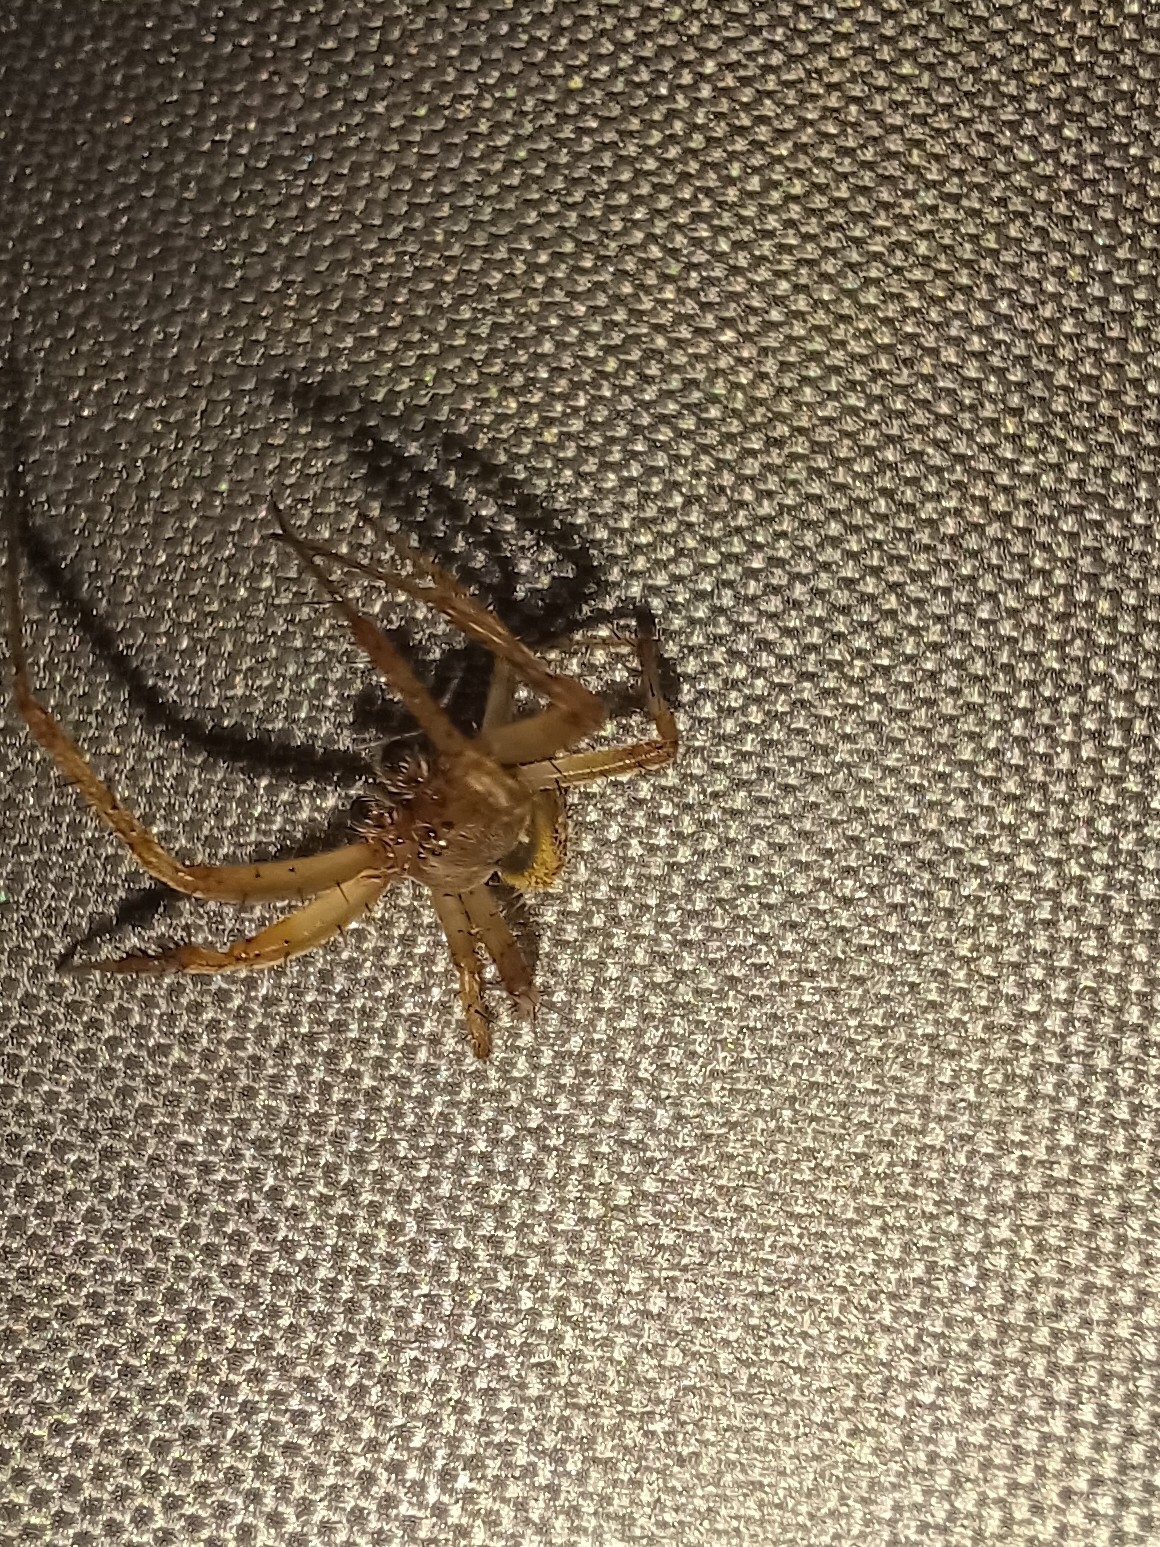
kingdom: Animalia
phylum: Arthropoda
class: Arachnida
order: Araneae
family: Araneidae
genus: Neoscona
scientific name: Neoscona arabesca
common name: Orb weavers
